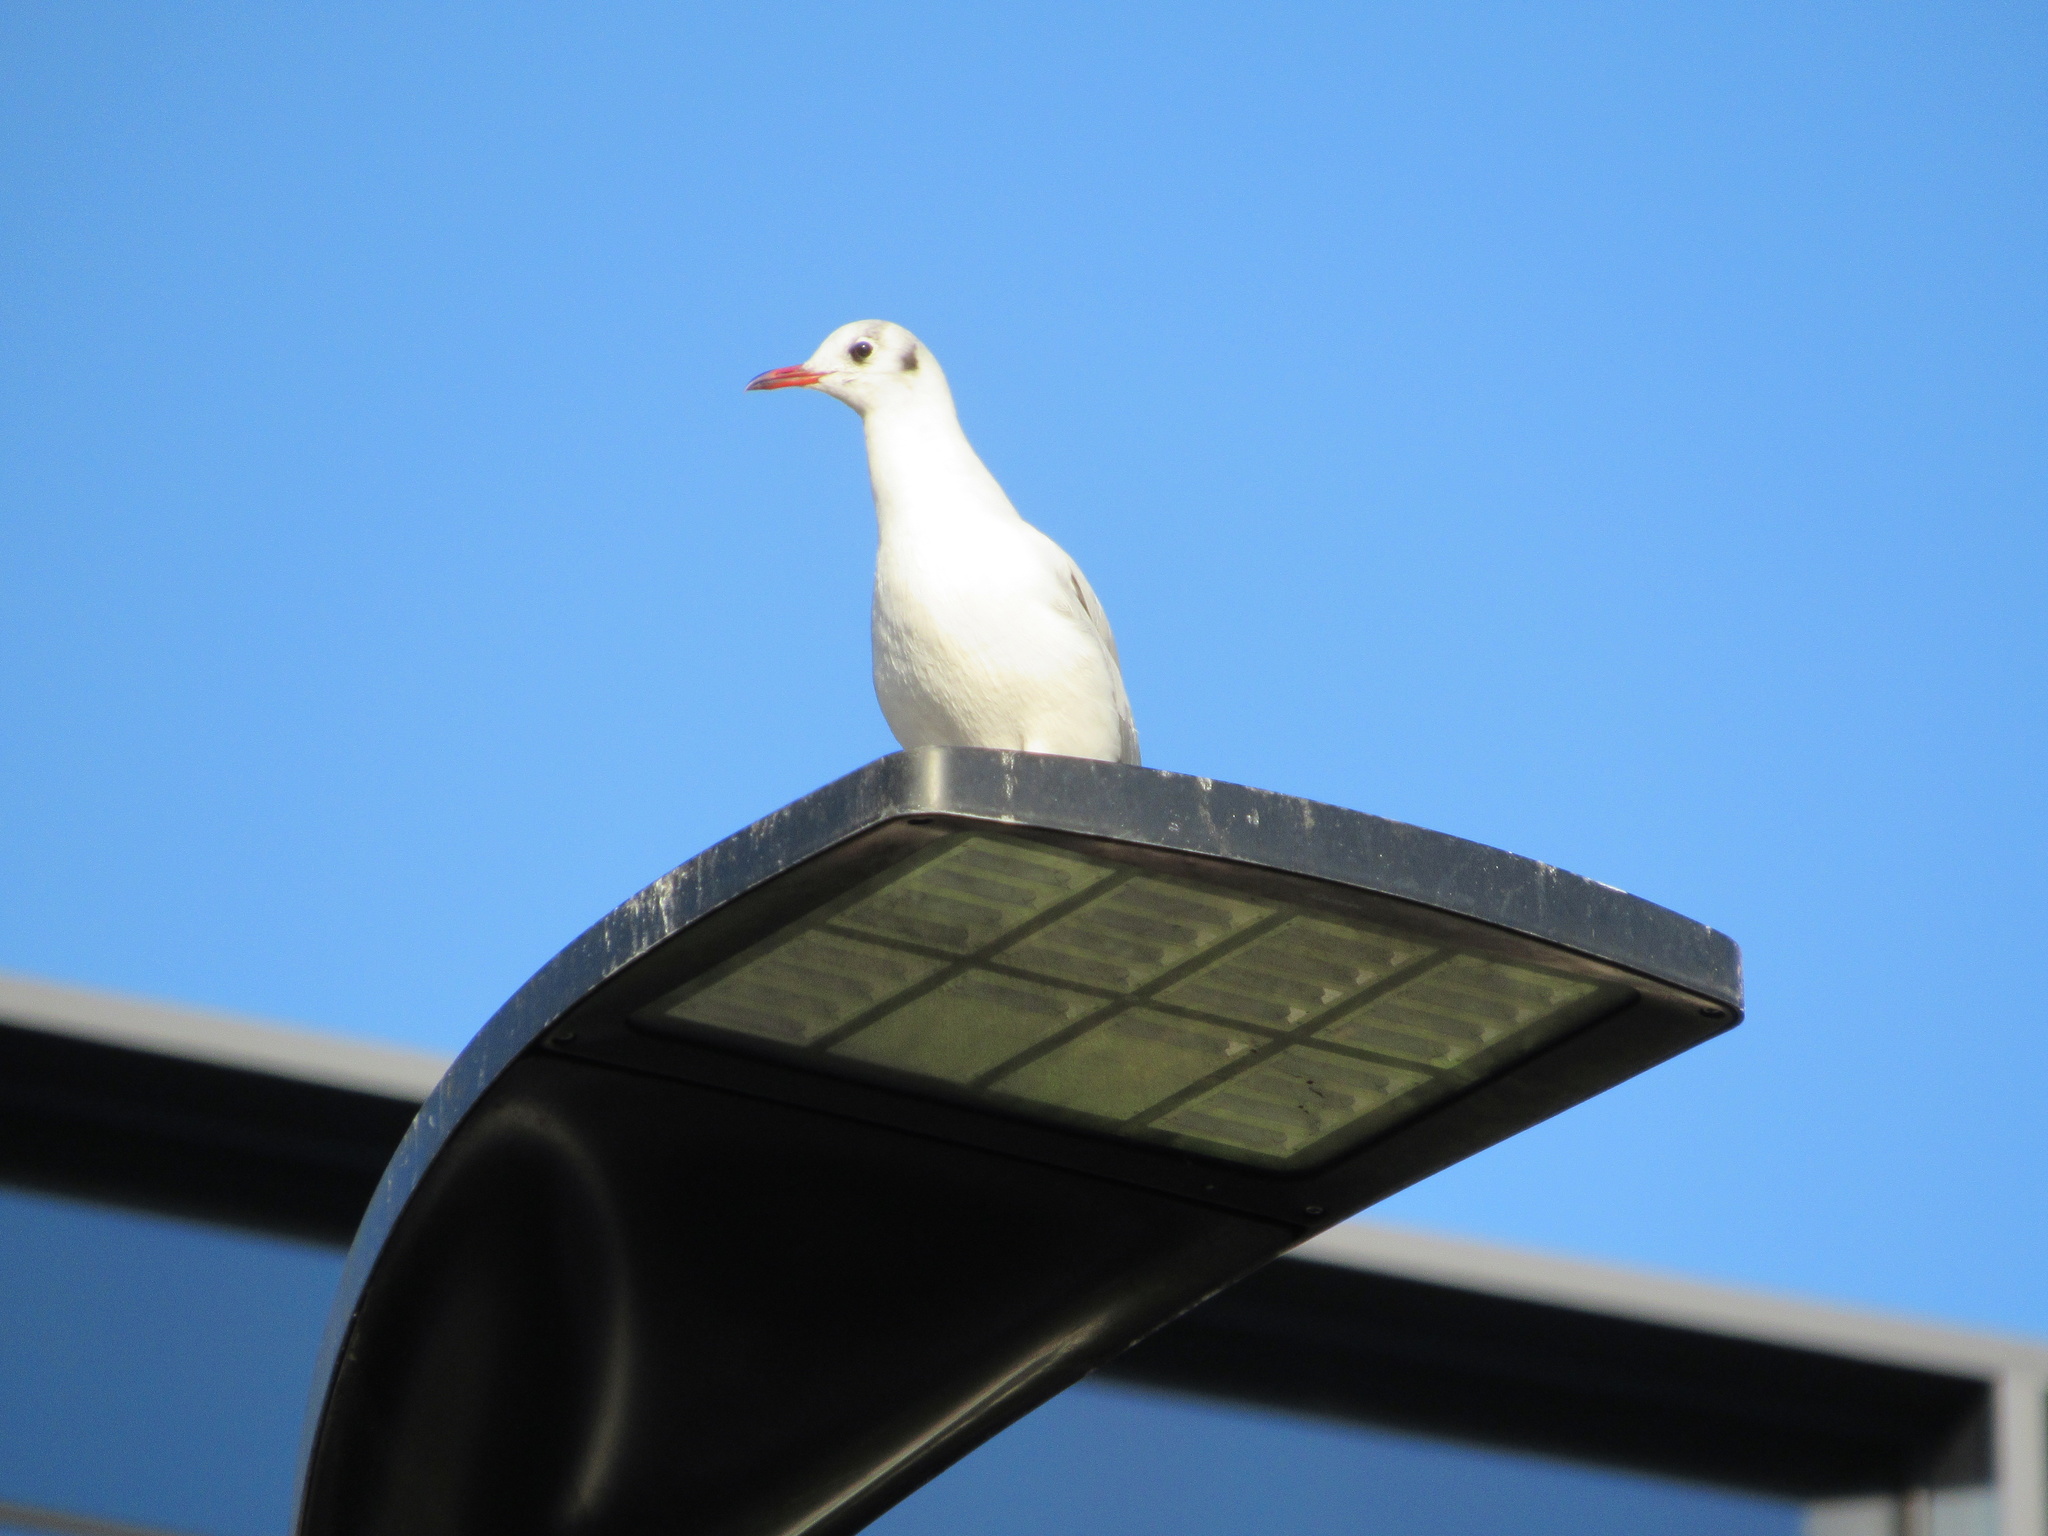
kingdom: Animalia
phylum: Chordata
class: Aves
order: Charadriiformes
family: Laridae
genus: Chroicocephalus
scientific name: Chroicocephalus ridibundus
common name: Black-headed gull
